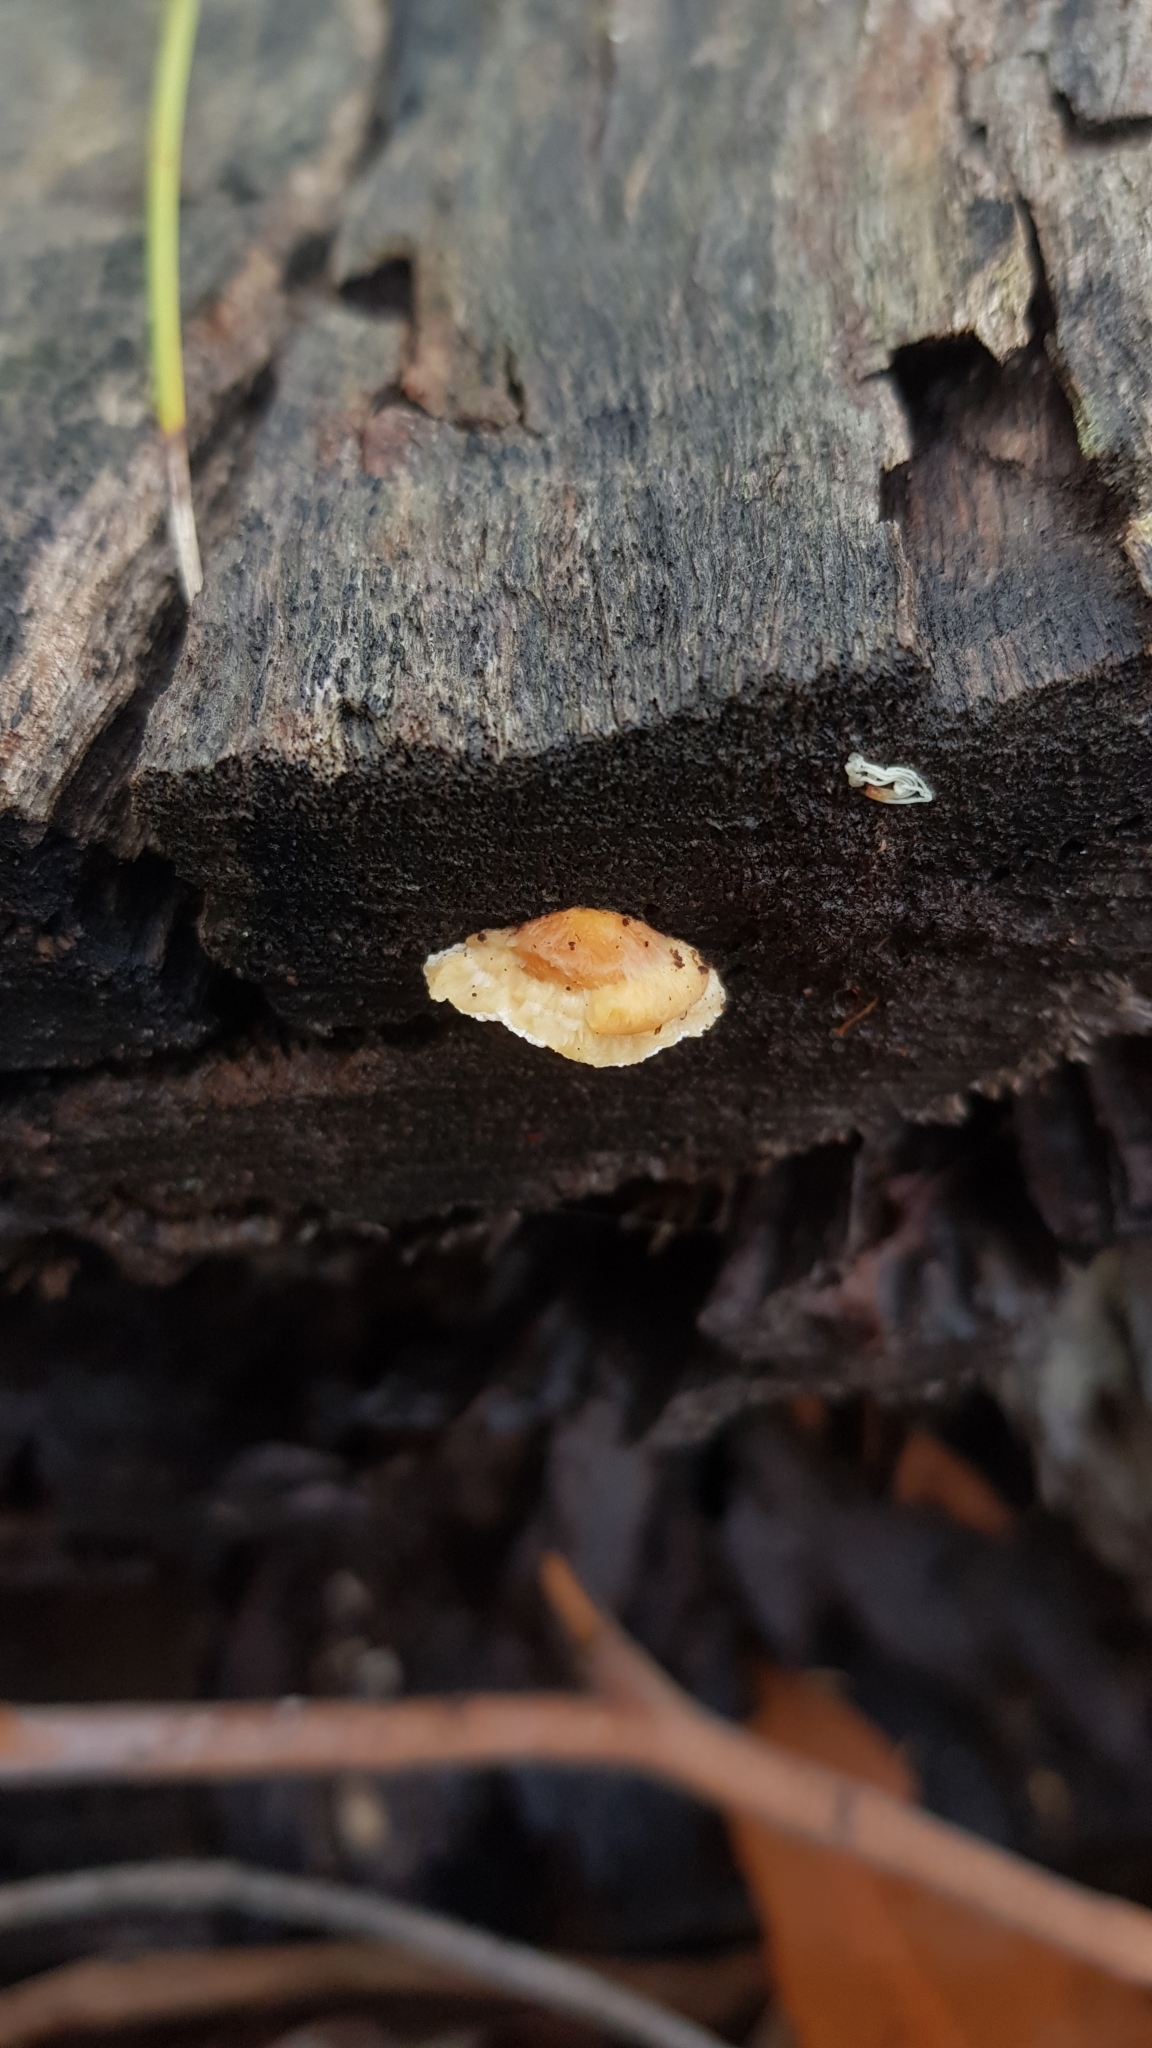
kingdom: Fungi
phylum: Basidiomycota
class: Agaricomycetes
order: Polyporales
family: Polyporaceae
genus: Truncospora
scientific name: Truncospora ochroleuca
